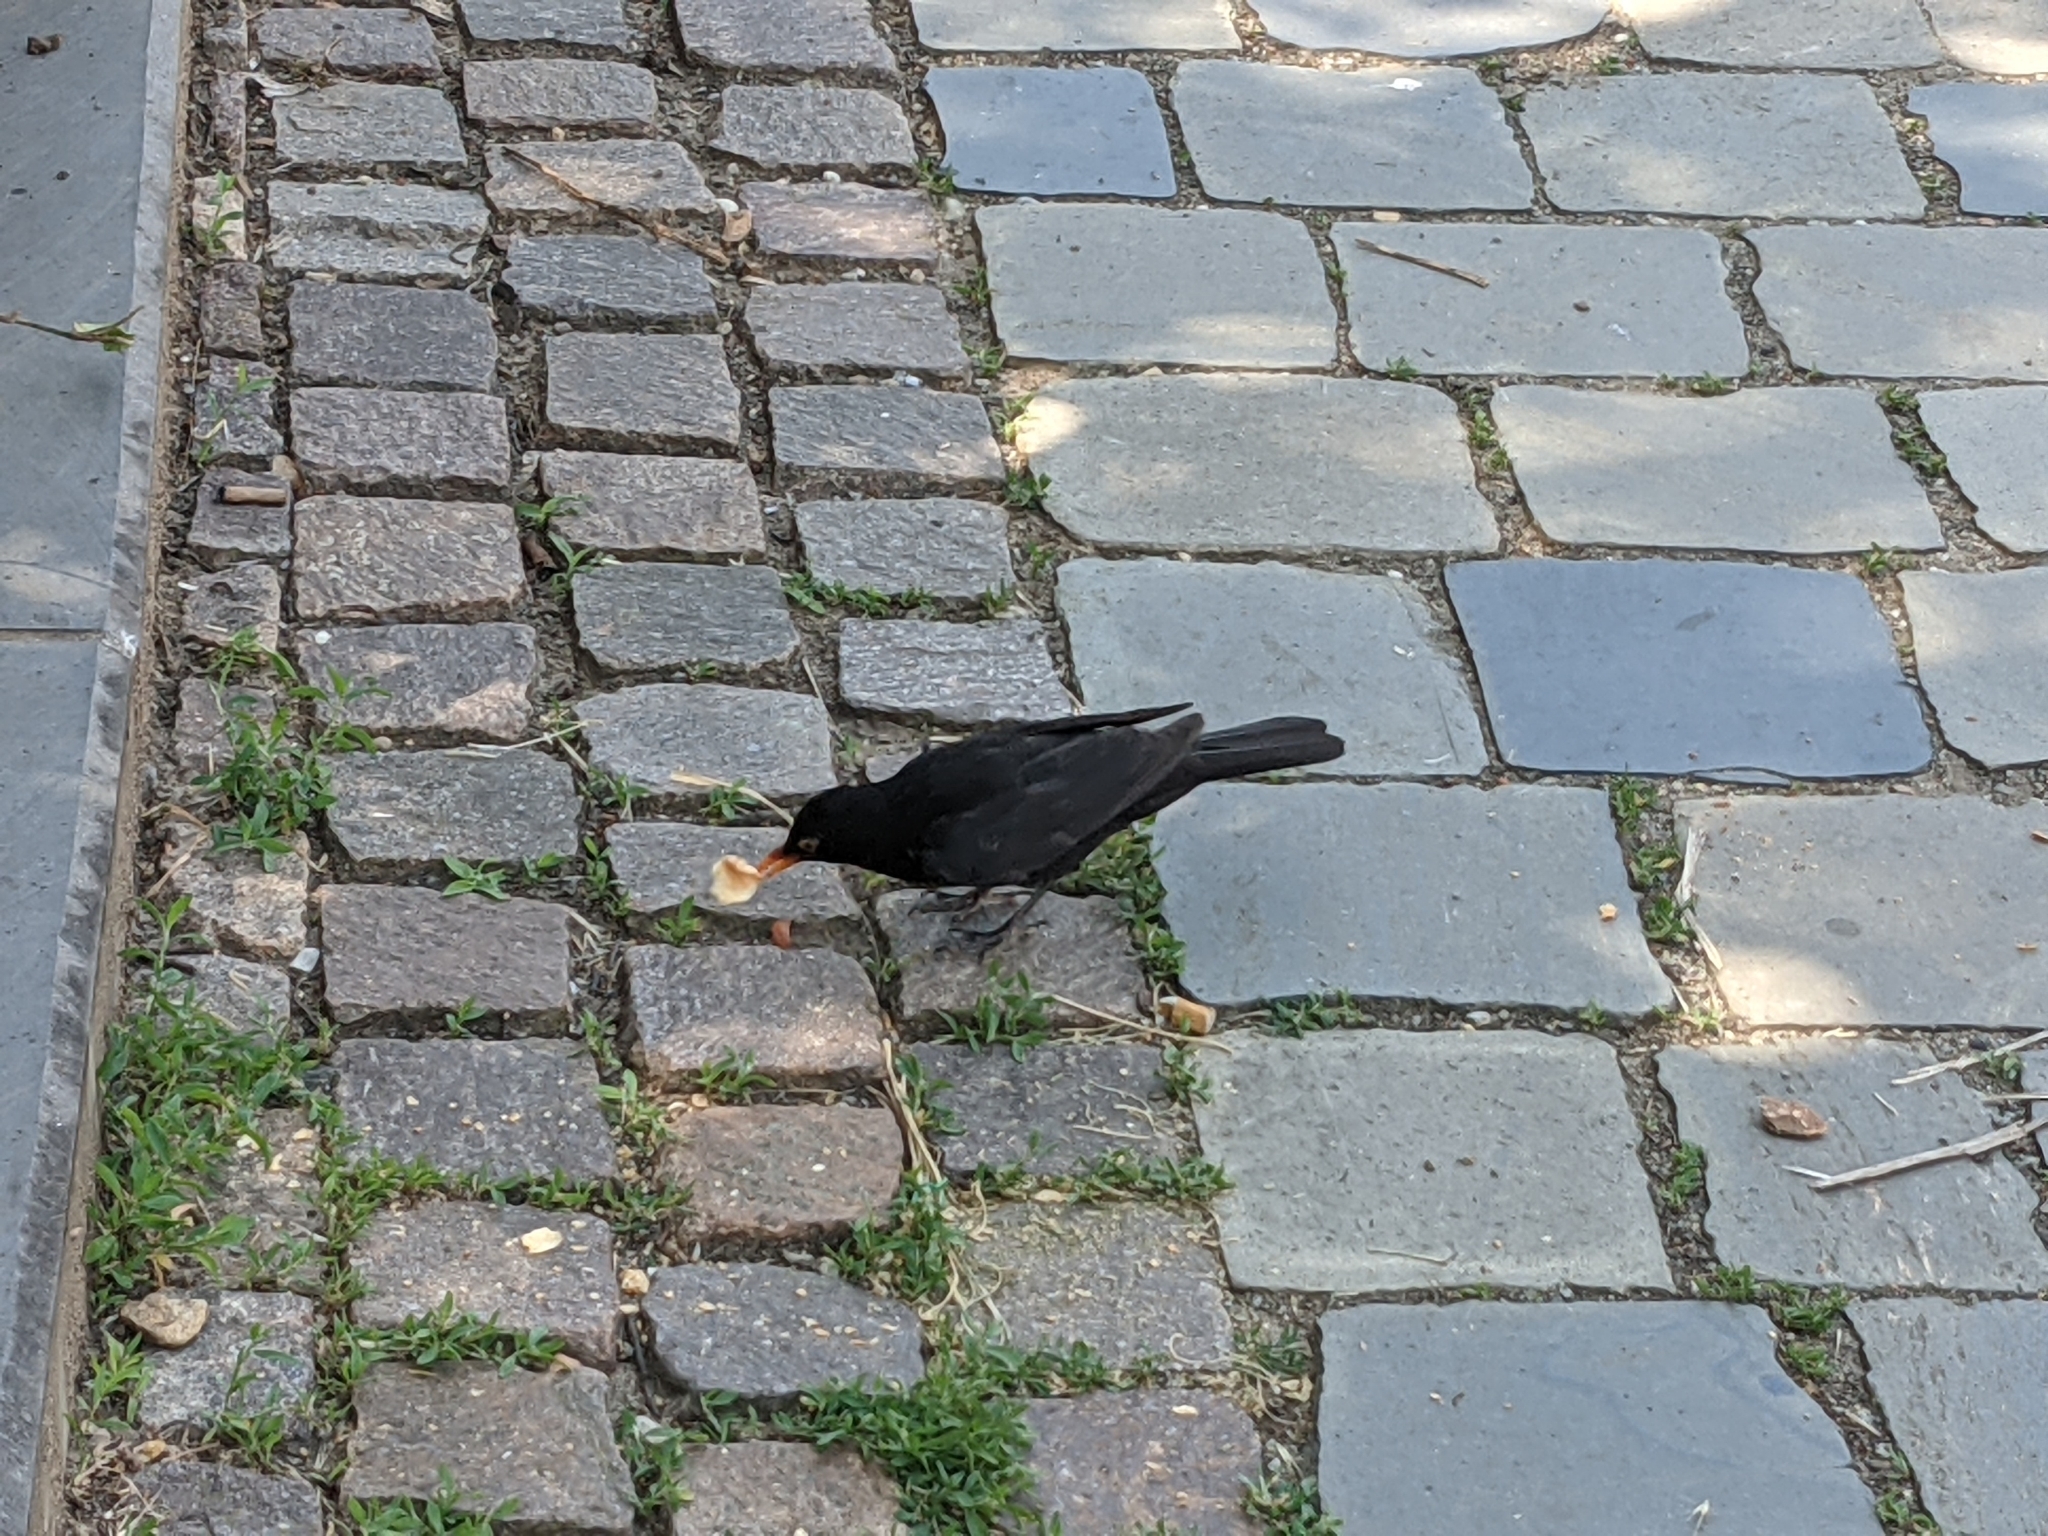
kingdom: Animalia
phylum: Chordata
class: Aves
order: Passeriformes
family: Turdidae
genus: Turdus
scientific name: Turdus merula
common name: Common blackbird
